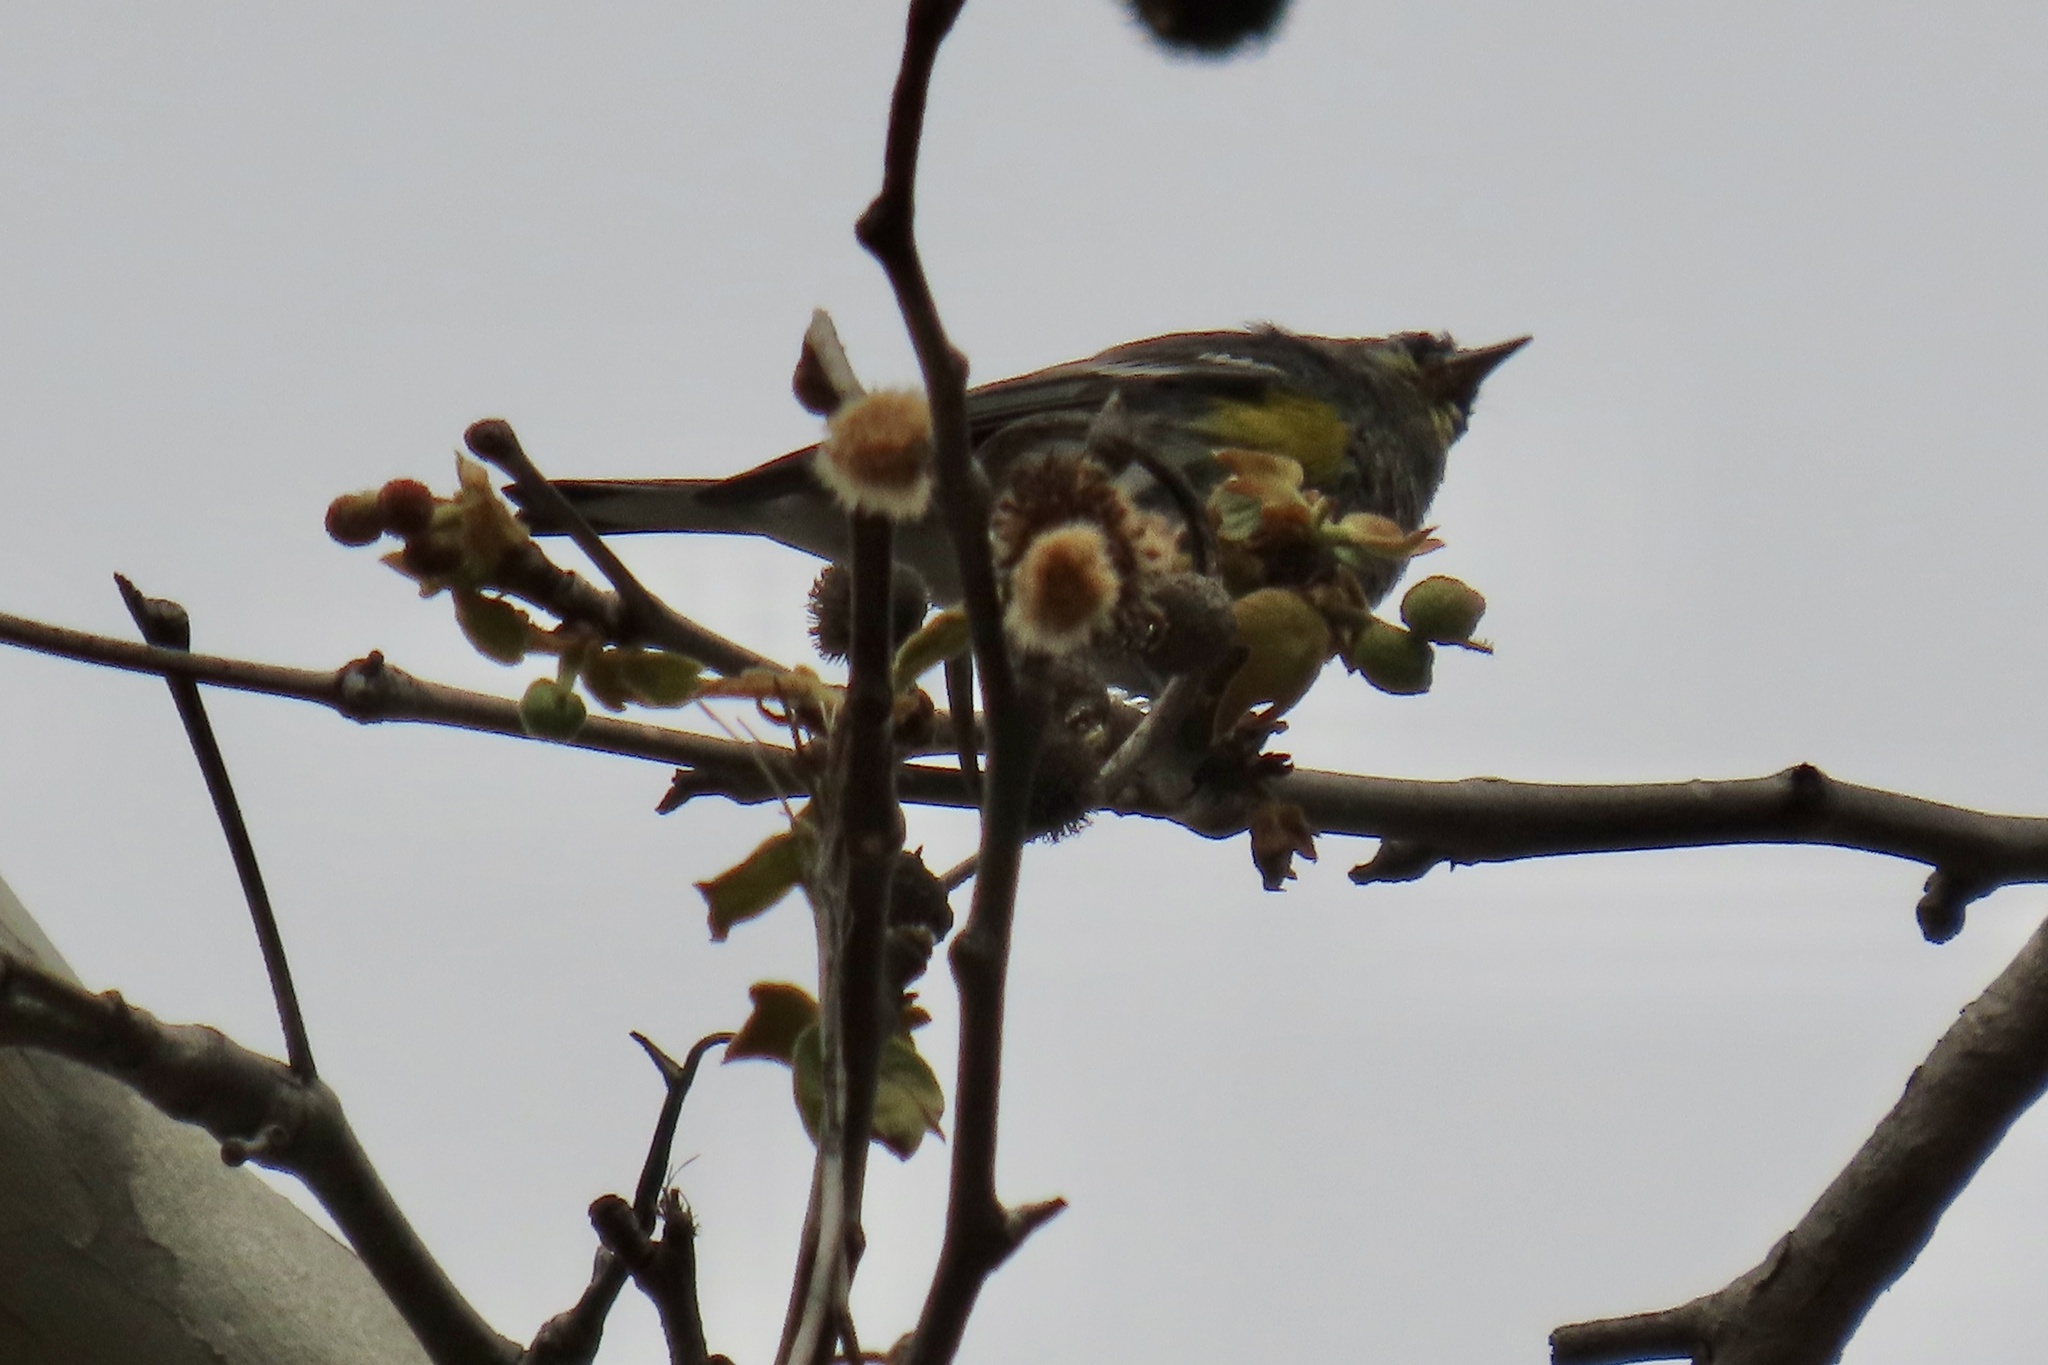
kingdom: Animalia
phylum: Chordata
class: Aves
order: Passeriformes
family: Parulidae
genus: Setophaga
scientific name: Setophaga coronata
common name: Myrtle warbler
